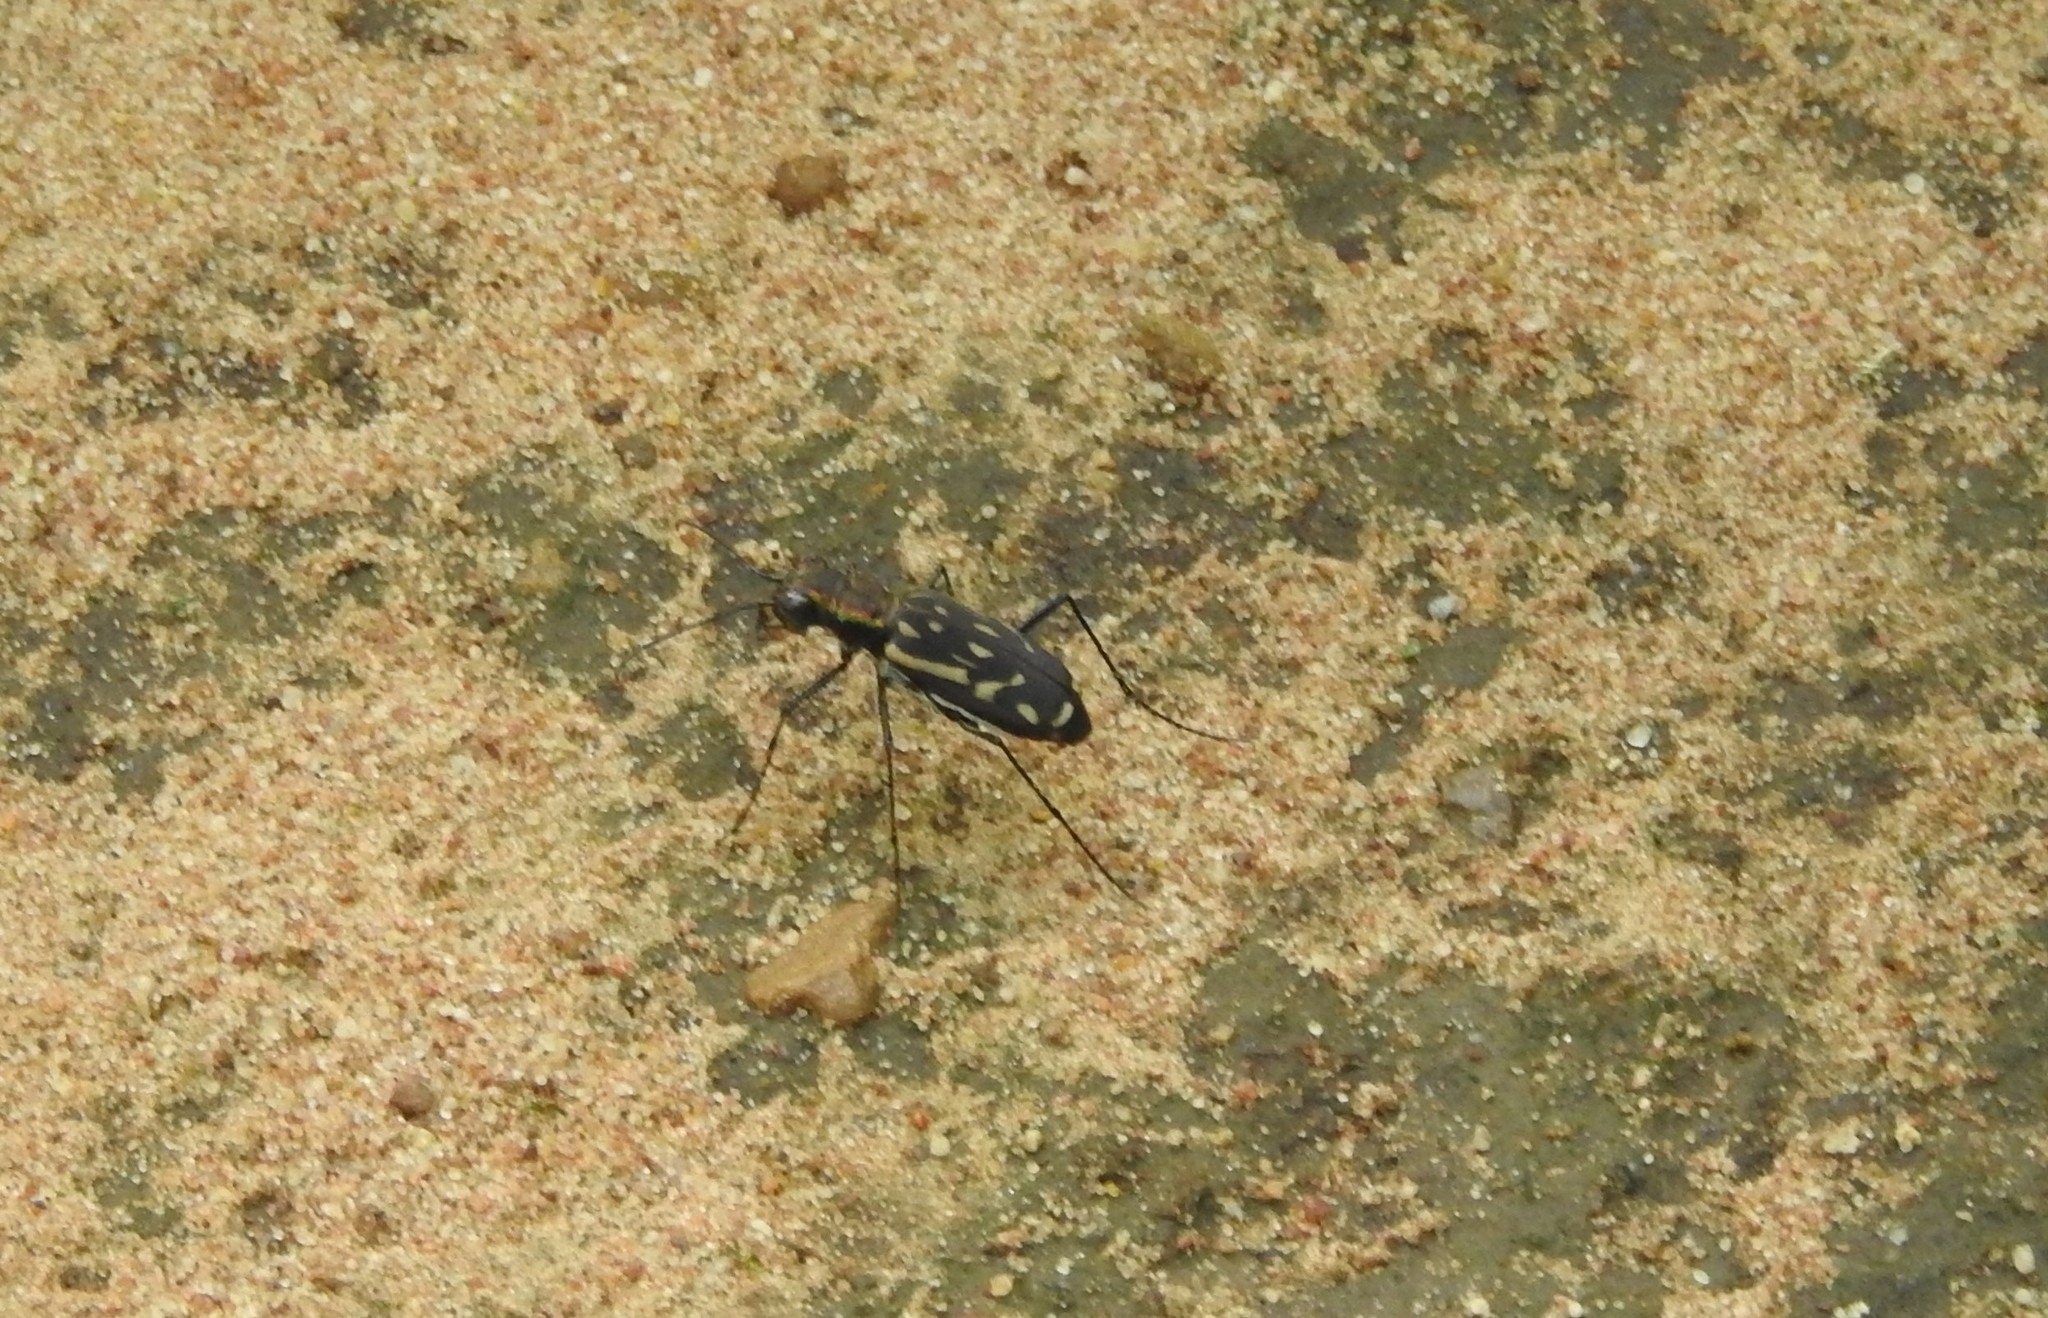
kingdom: Animalia
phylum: Arthropoda
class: Insecta
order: Coleoptera
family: Carabidae
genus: Lophyra
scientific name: Lophyra striolata
